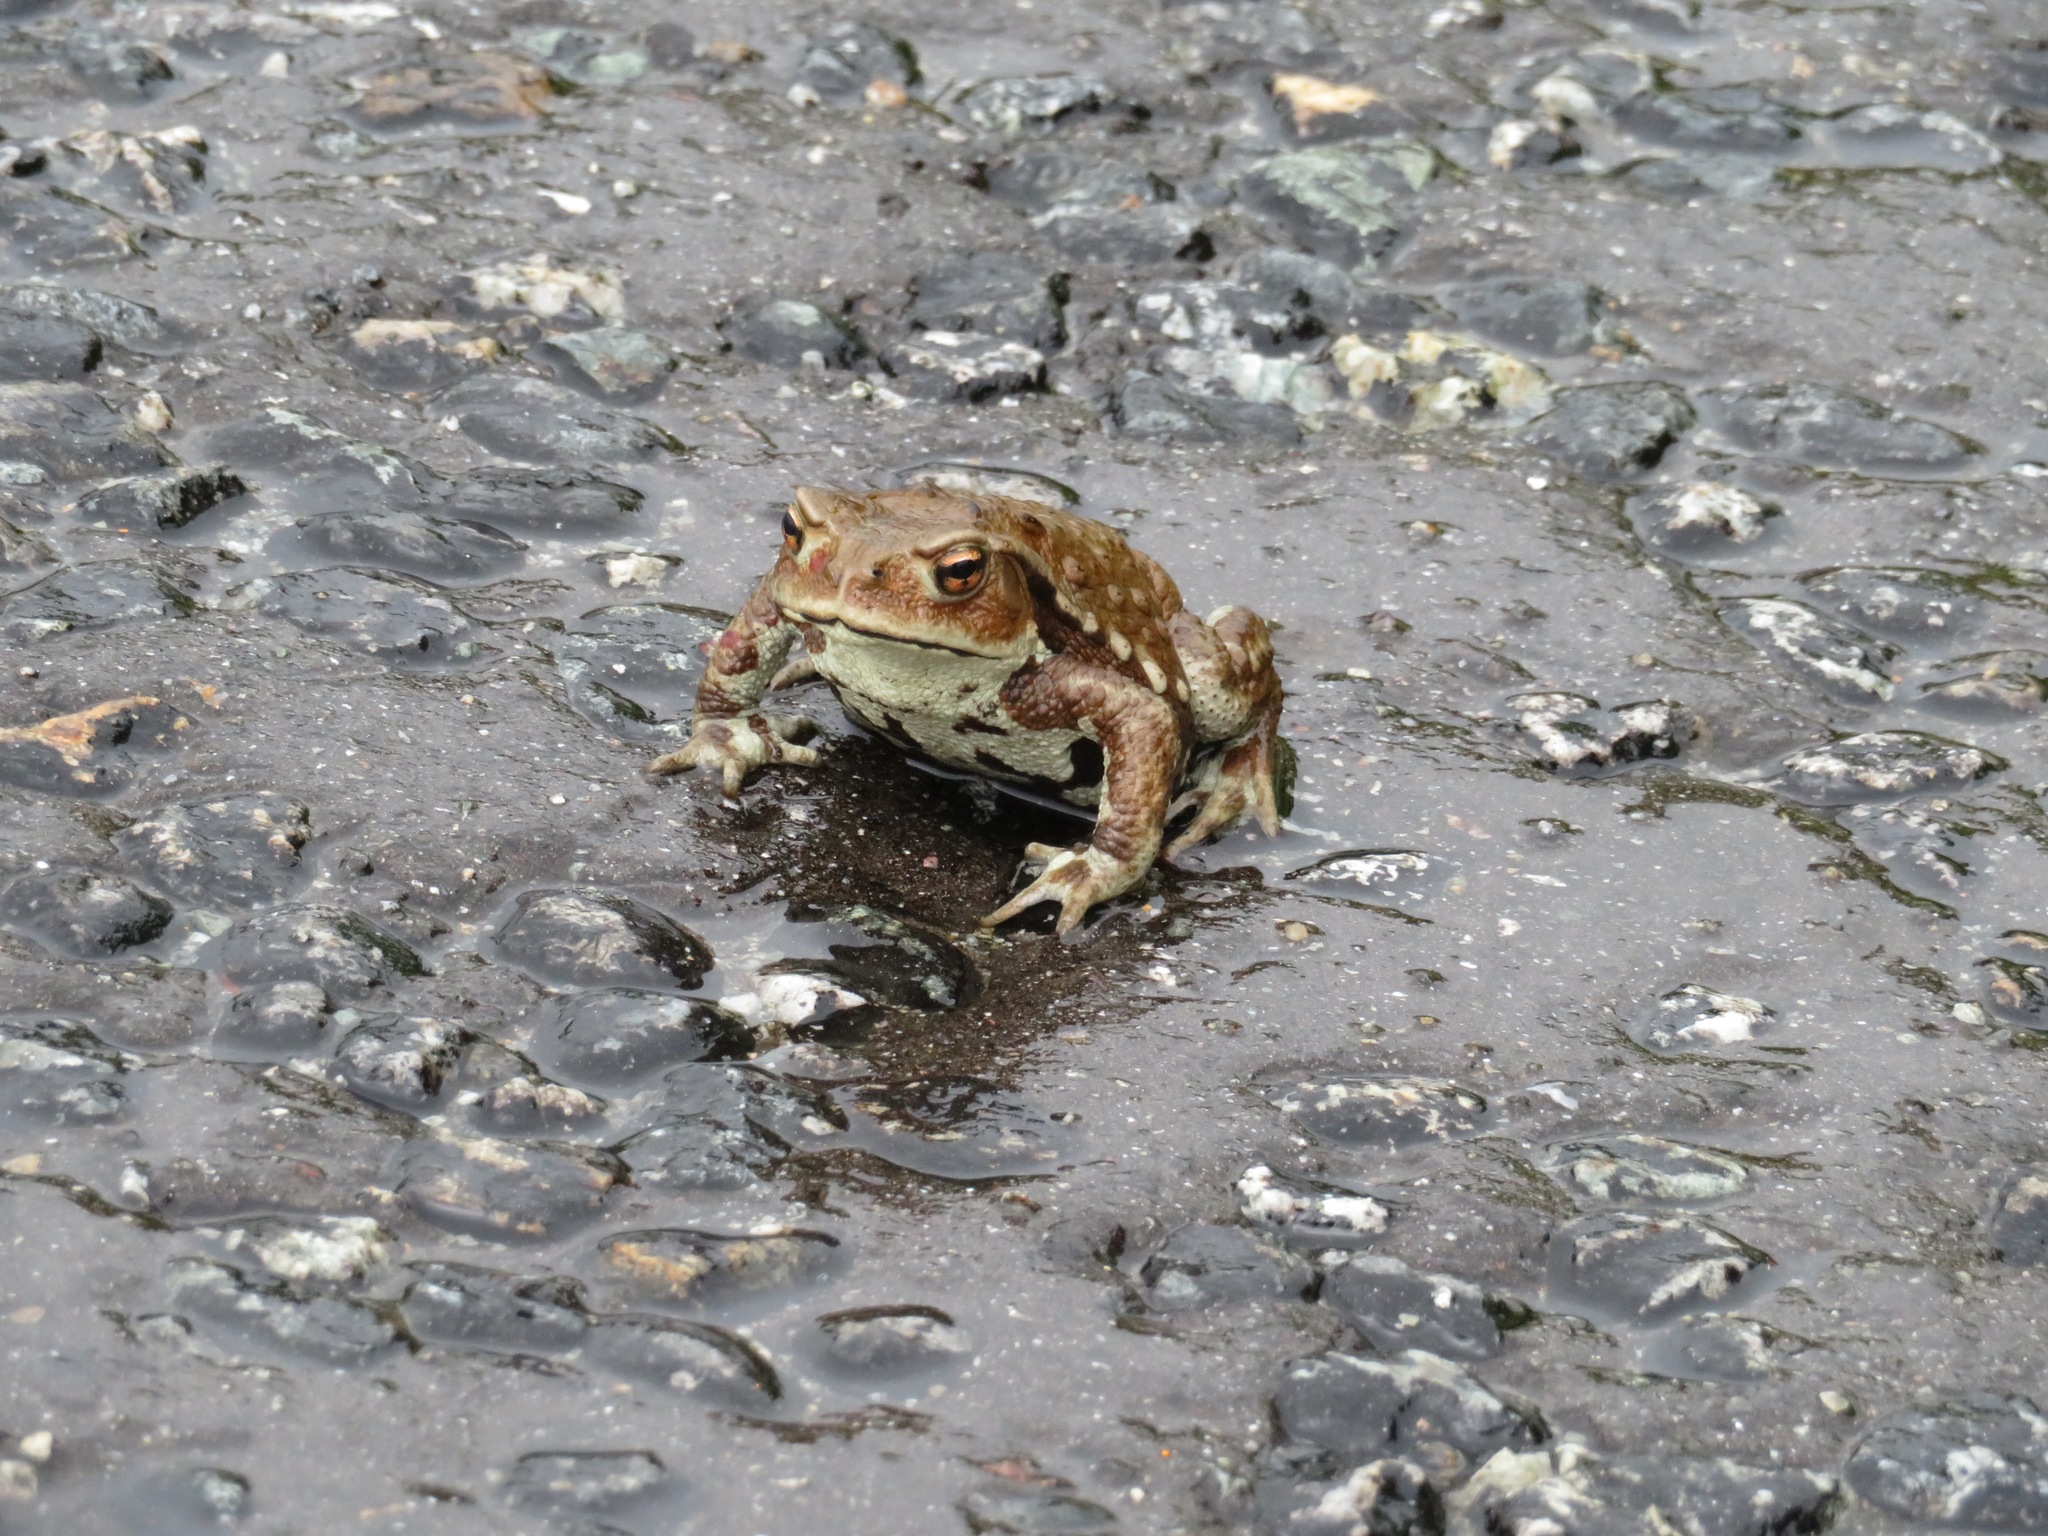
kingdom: Animalia
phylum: Chordata
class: Amphibia
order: Anura
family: Bufonidae
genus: Bufo
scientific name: Bufo japonicus
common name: Japanese common toad
